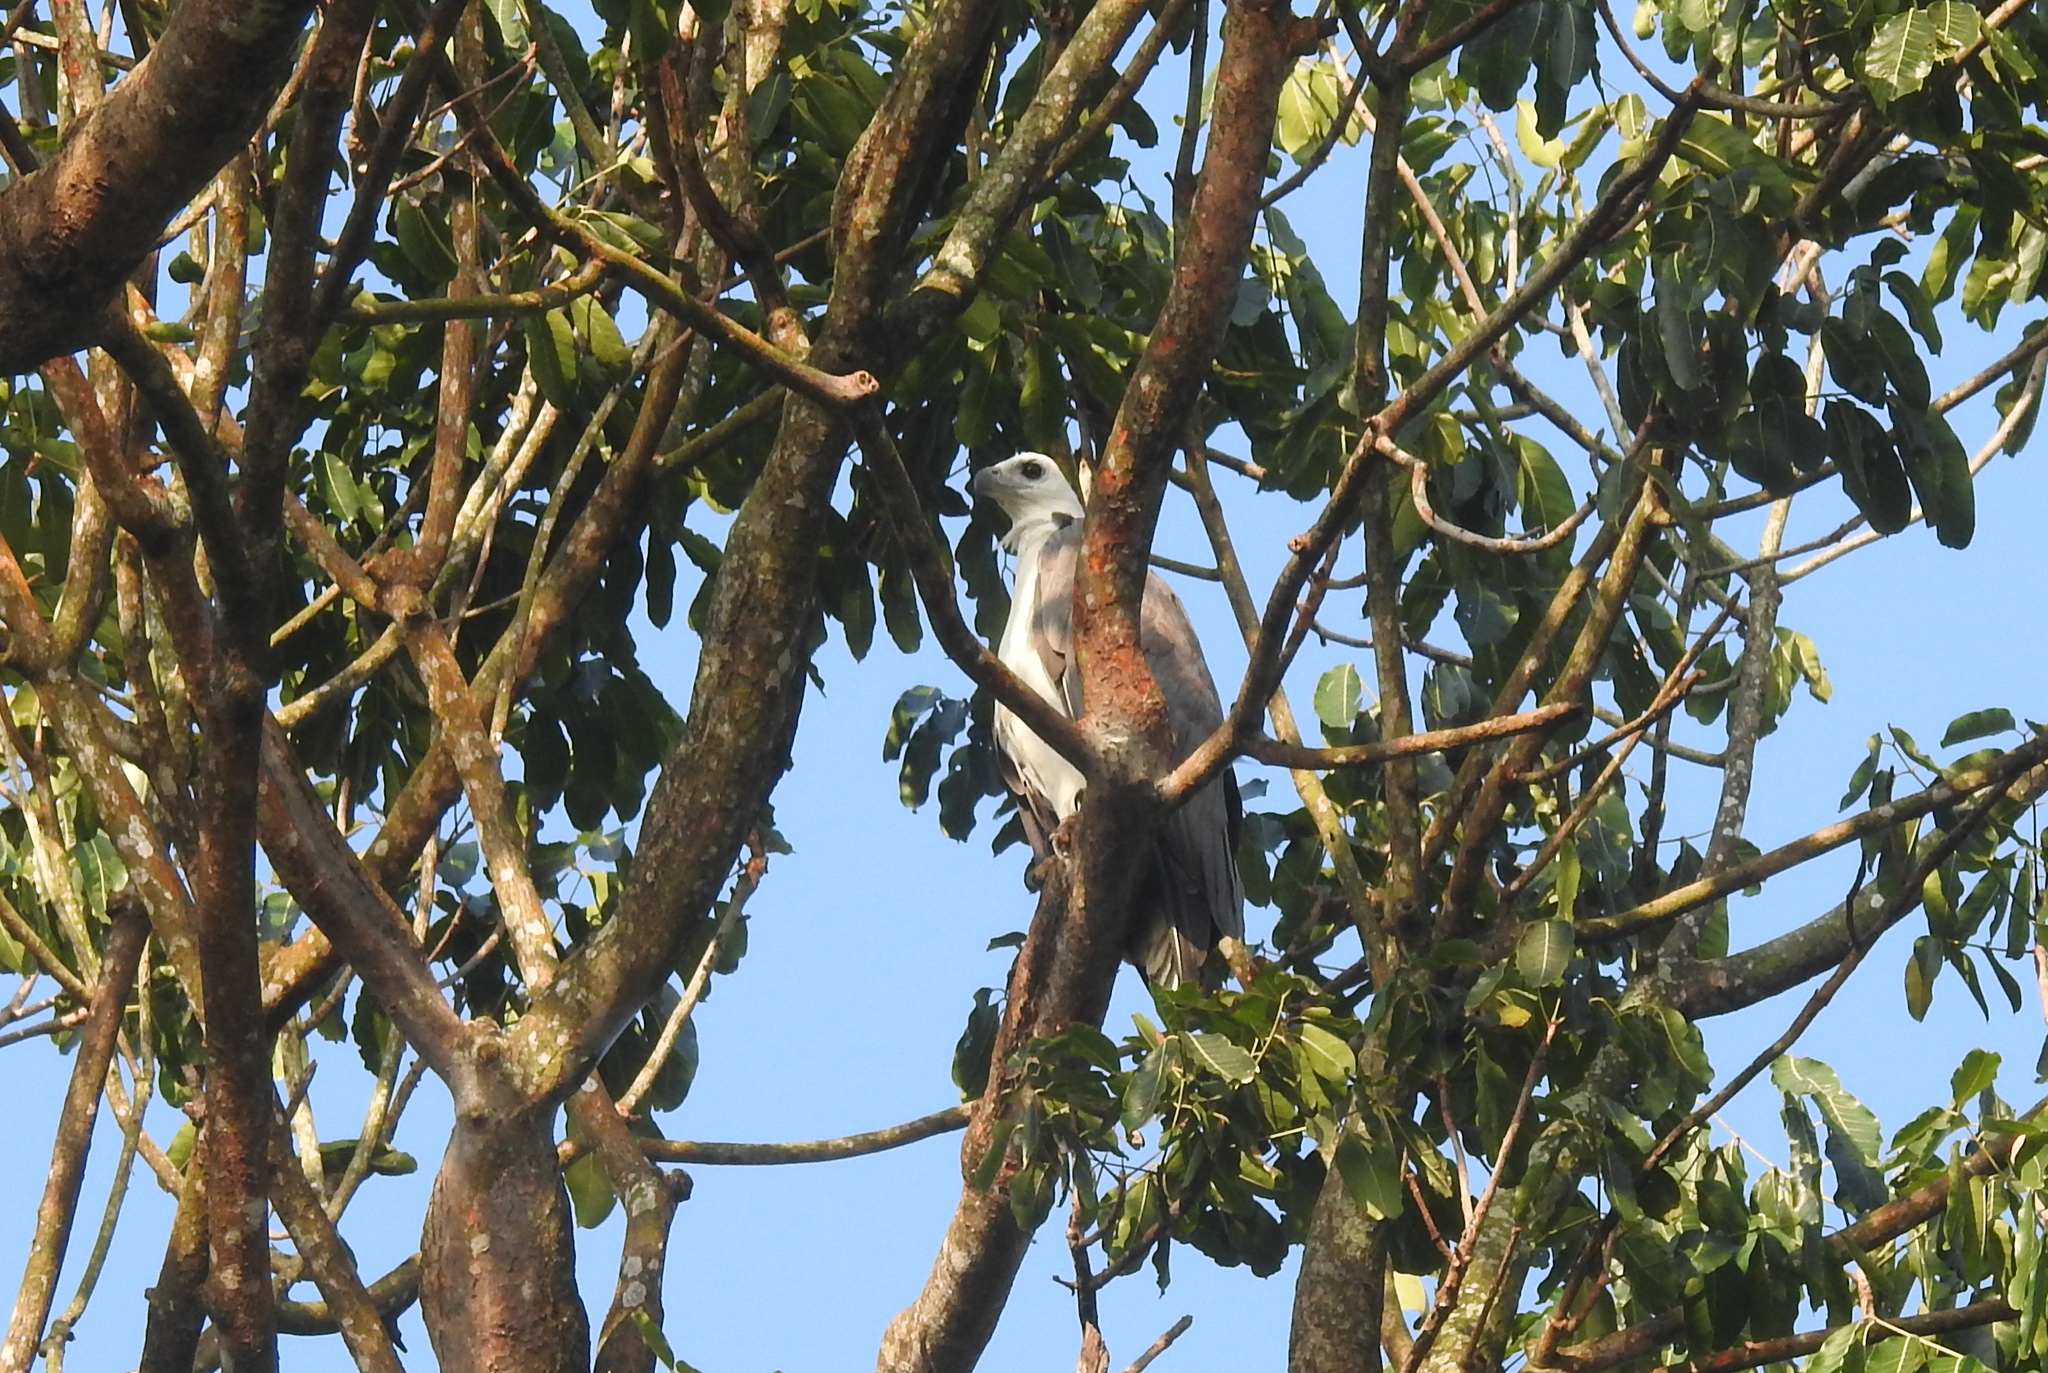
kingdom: Animalia
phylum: Chordata
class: Aves
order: Accipitriformes
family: Accipitridae
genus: Haliaeetus
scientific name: Haliaeetus leucogaster
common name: White-bellied sea eagle
